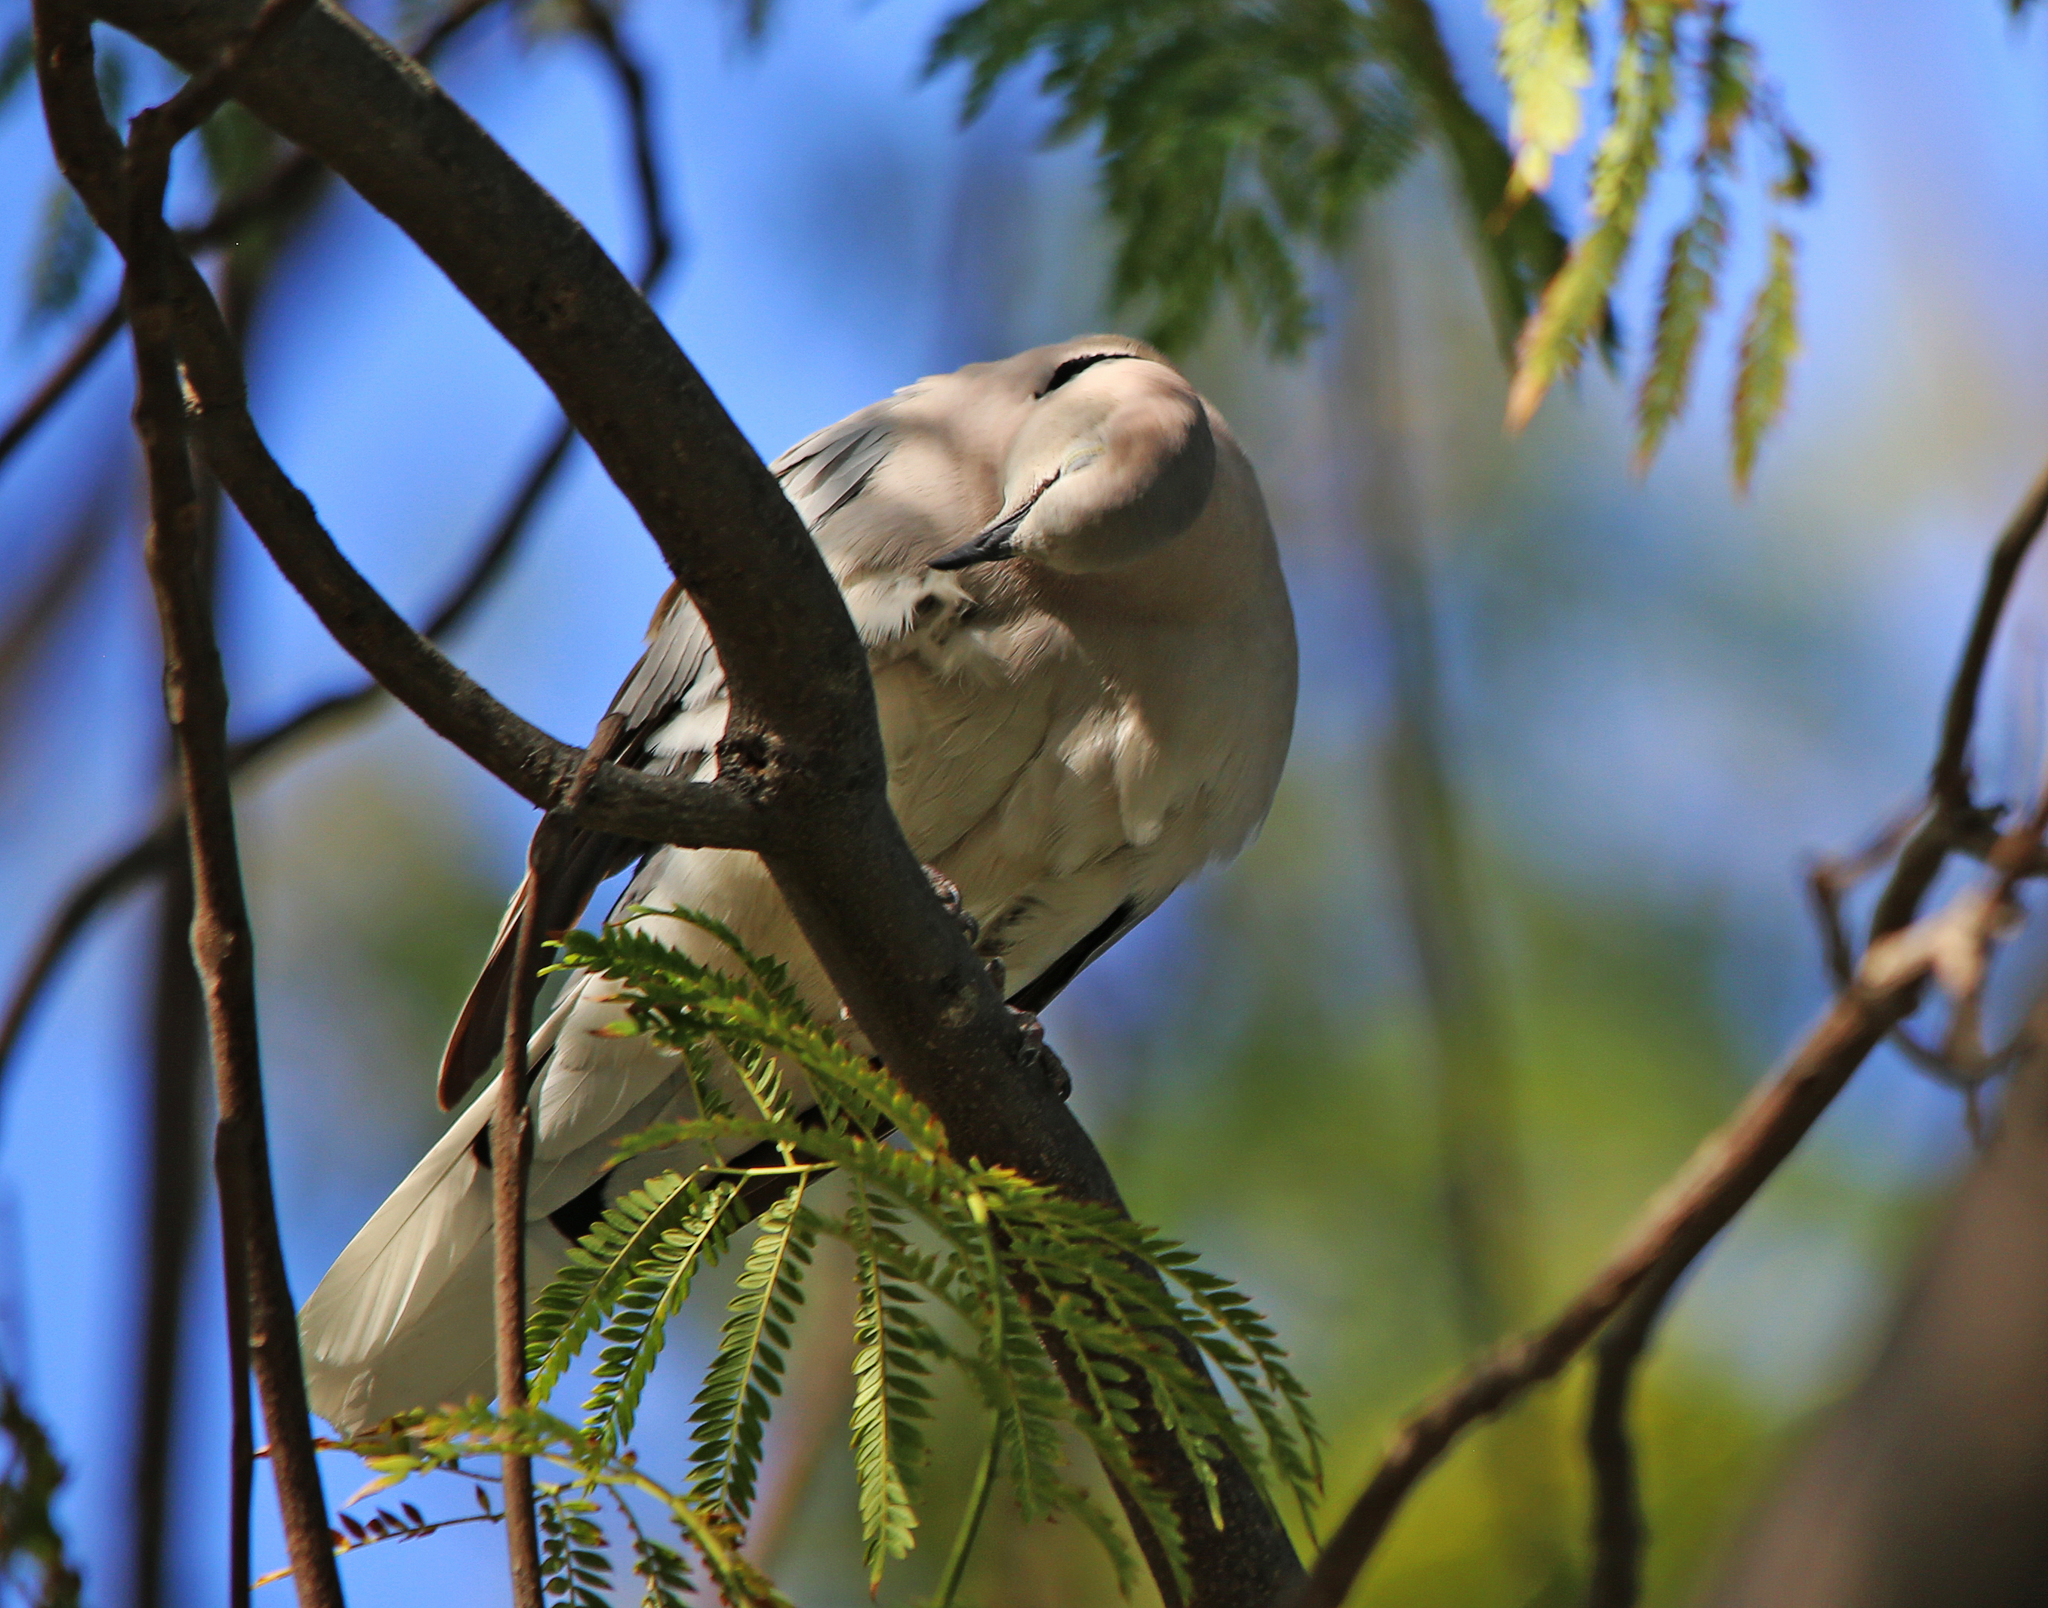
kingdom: Animalia
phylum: Chordata
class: Aves
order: Columbiformes
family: Columbidae
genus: Streptopelia
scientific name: Streptopelia capicola
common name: Ring-necked dove
